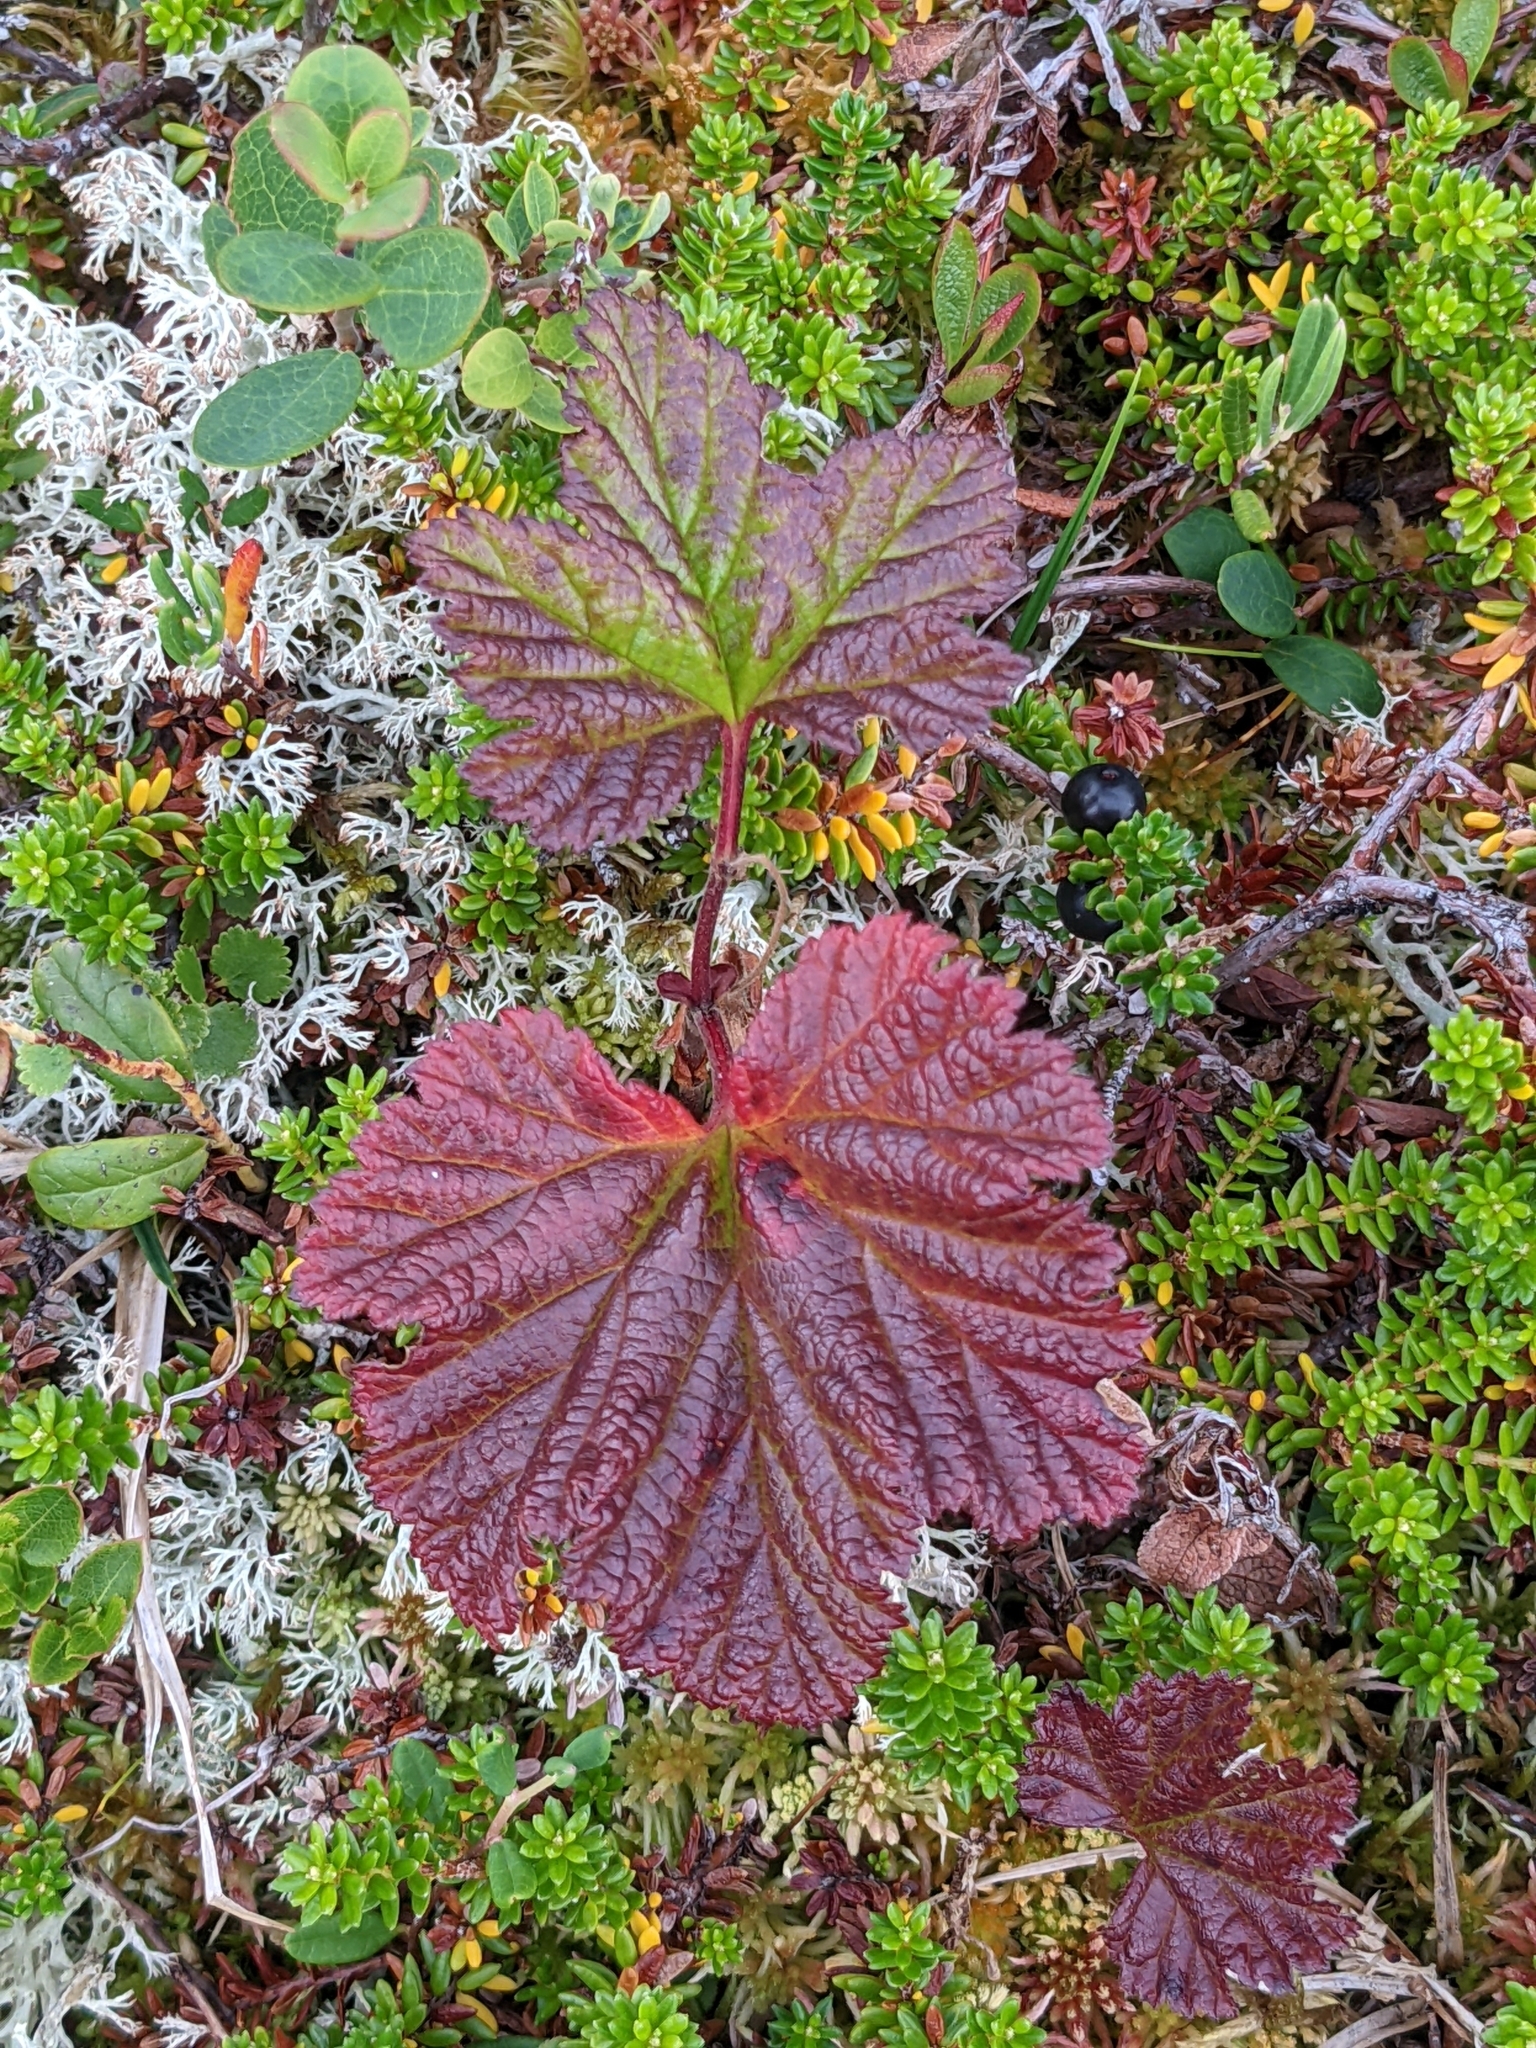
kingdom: Plantae
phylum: Tracheophyta
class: Magnoliopsida
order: Rosales
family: Rosaceae
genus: Rubus
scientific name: Rubus chamaemorus
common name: Cloudberry
